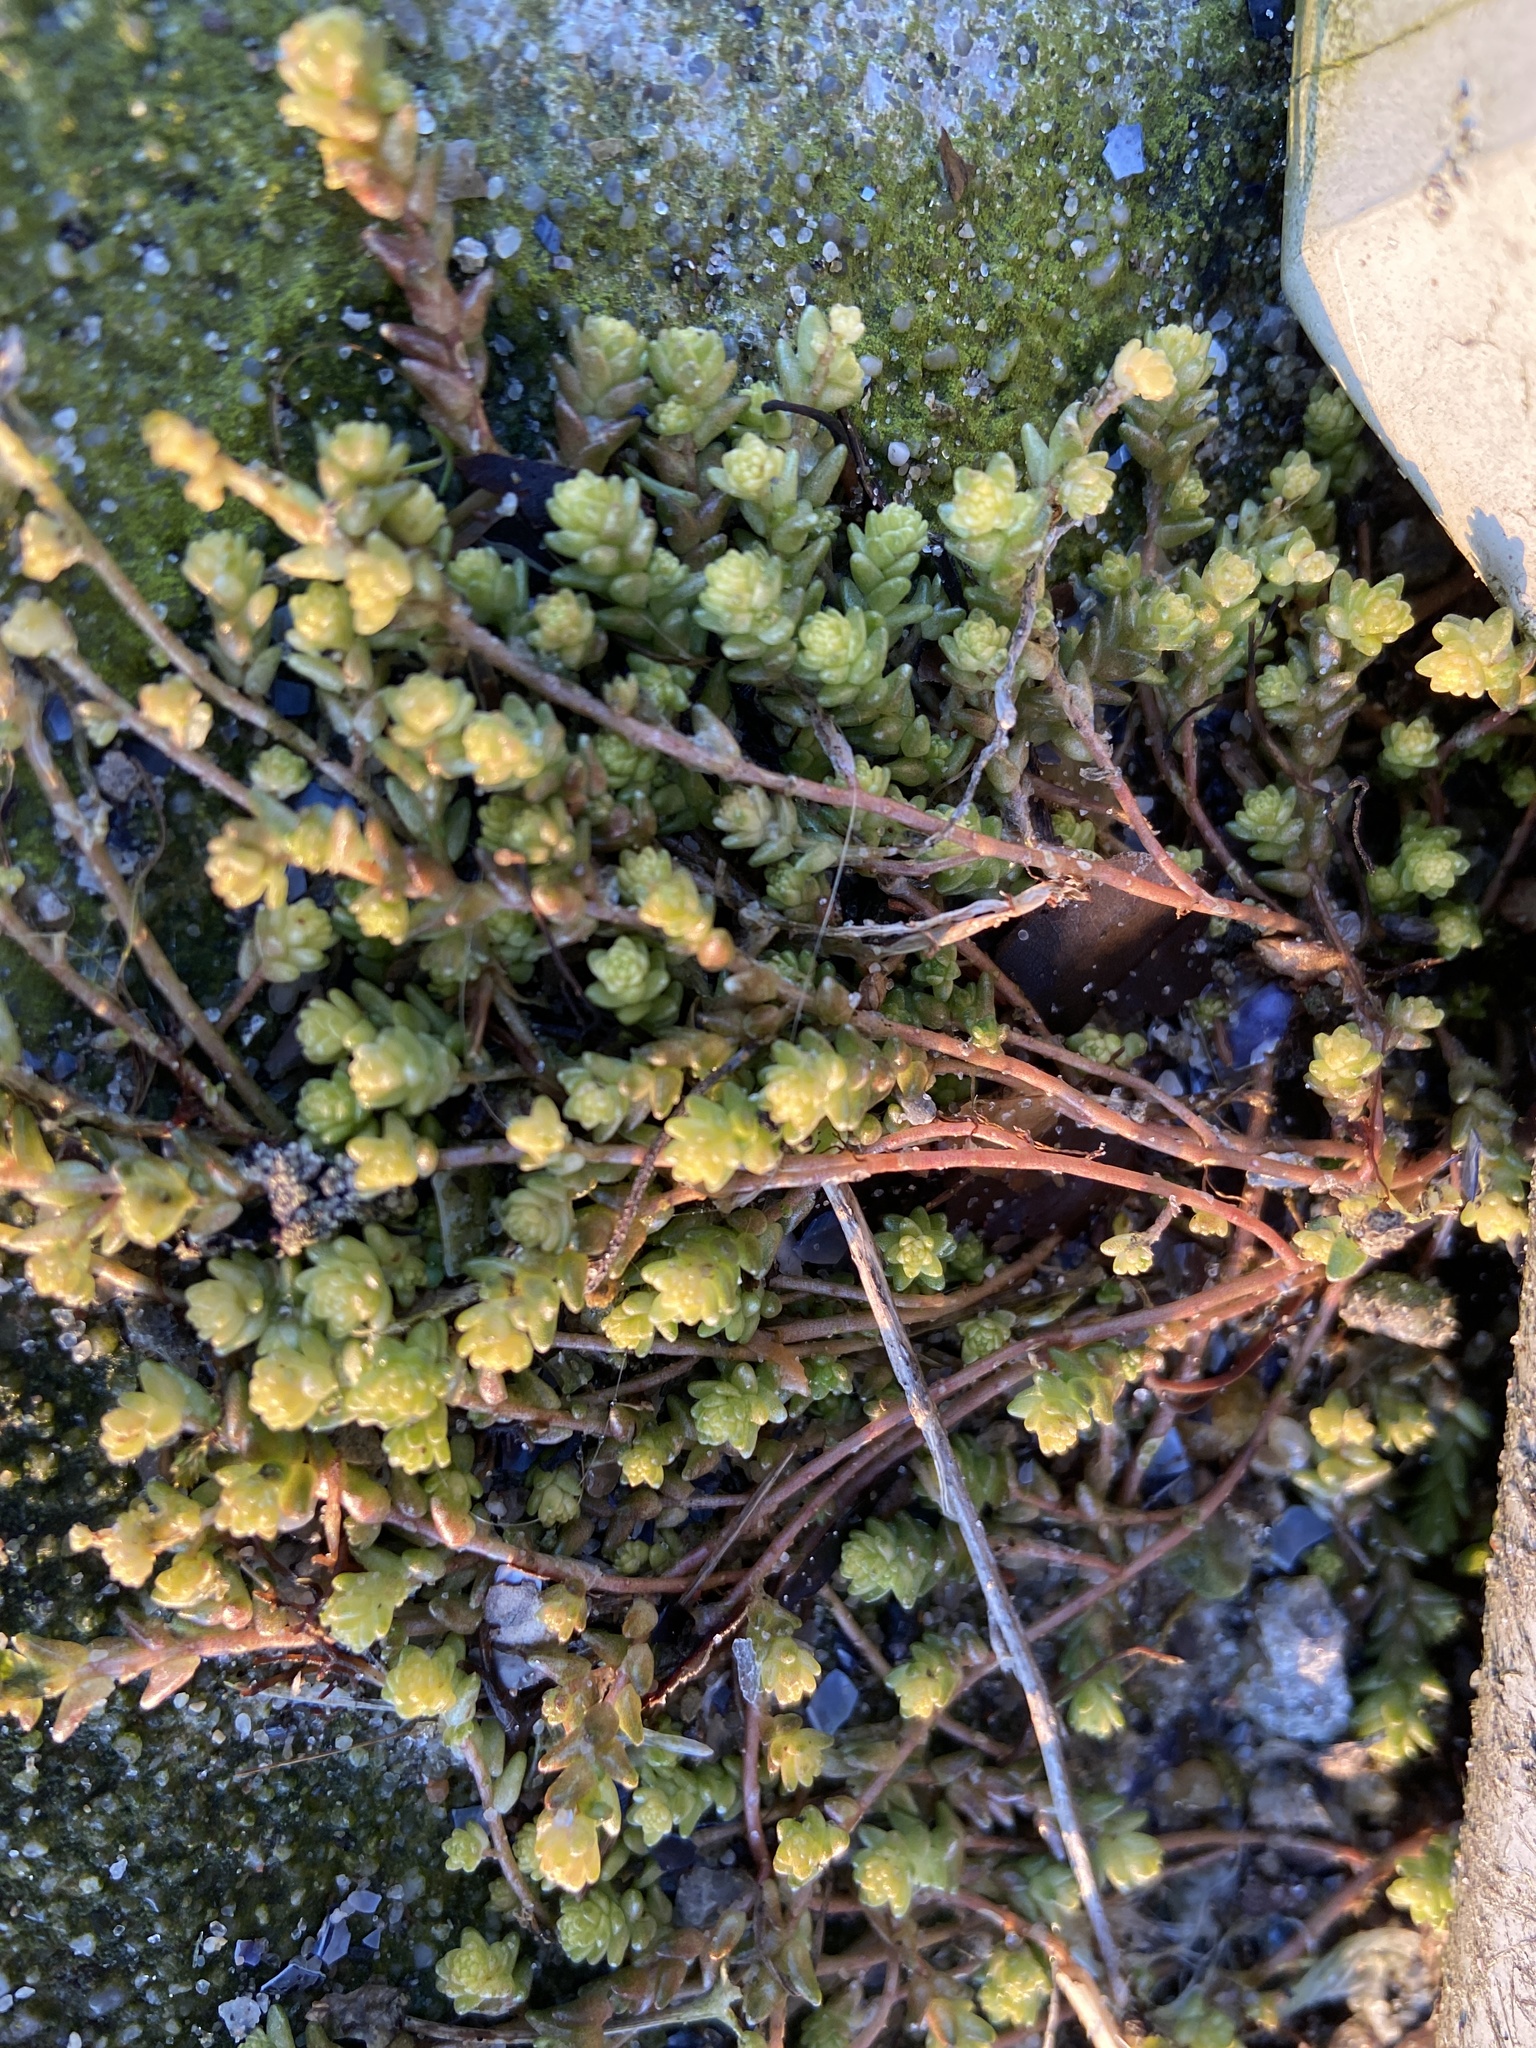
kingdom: Plantae
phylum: Tracheophyta
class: Magnoliopsida
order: Saxifragales
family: Crassulaceae
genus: Sedum
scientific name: Sedum acre
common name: Biting stonecrop
